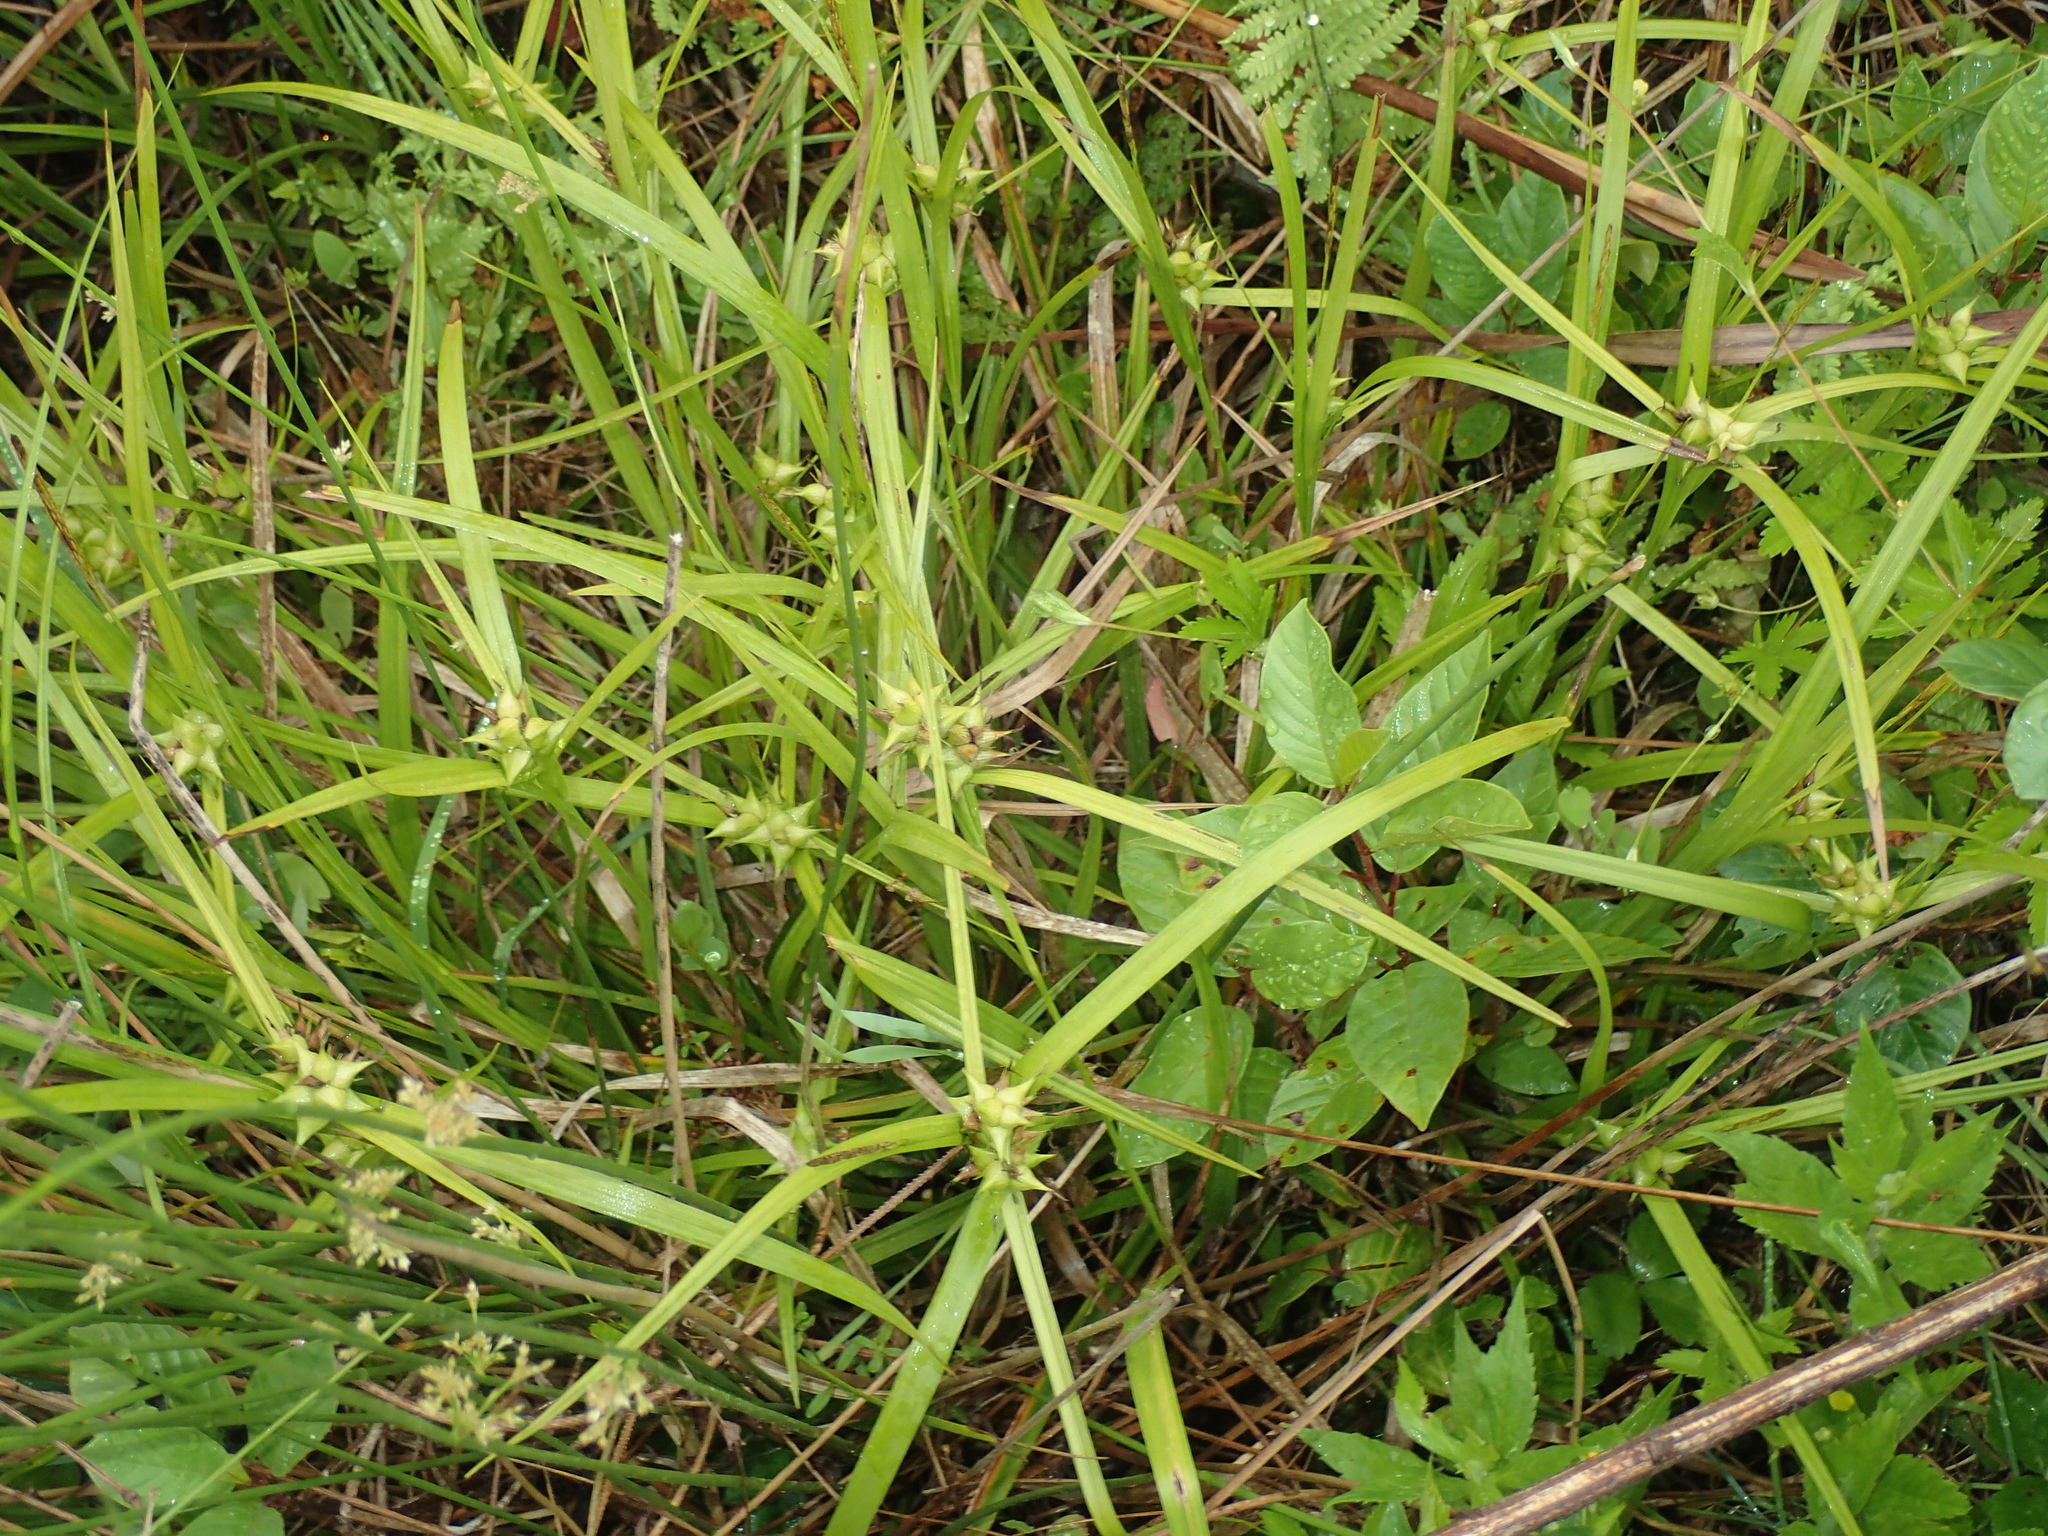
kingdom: Plantae
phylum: Tracheophyta
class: Liliopsida
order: Poales
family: Cyperaceae
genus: Carex
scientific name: Carex intumescens
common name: Greater bladder sedge
